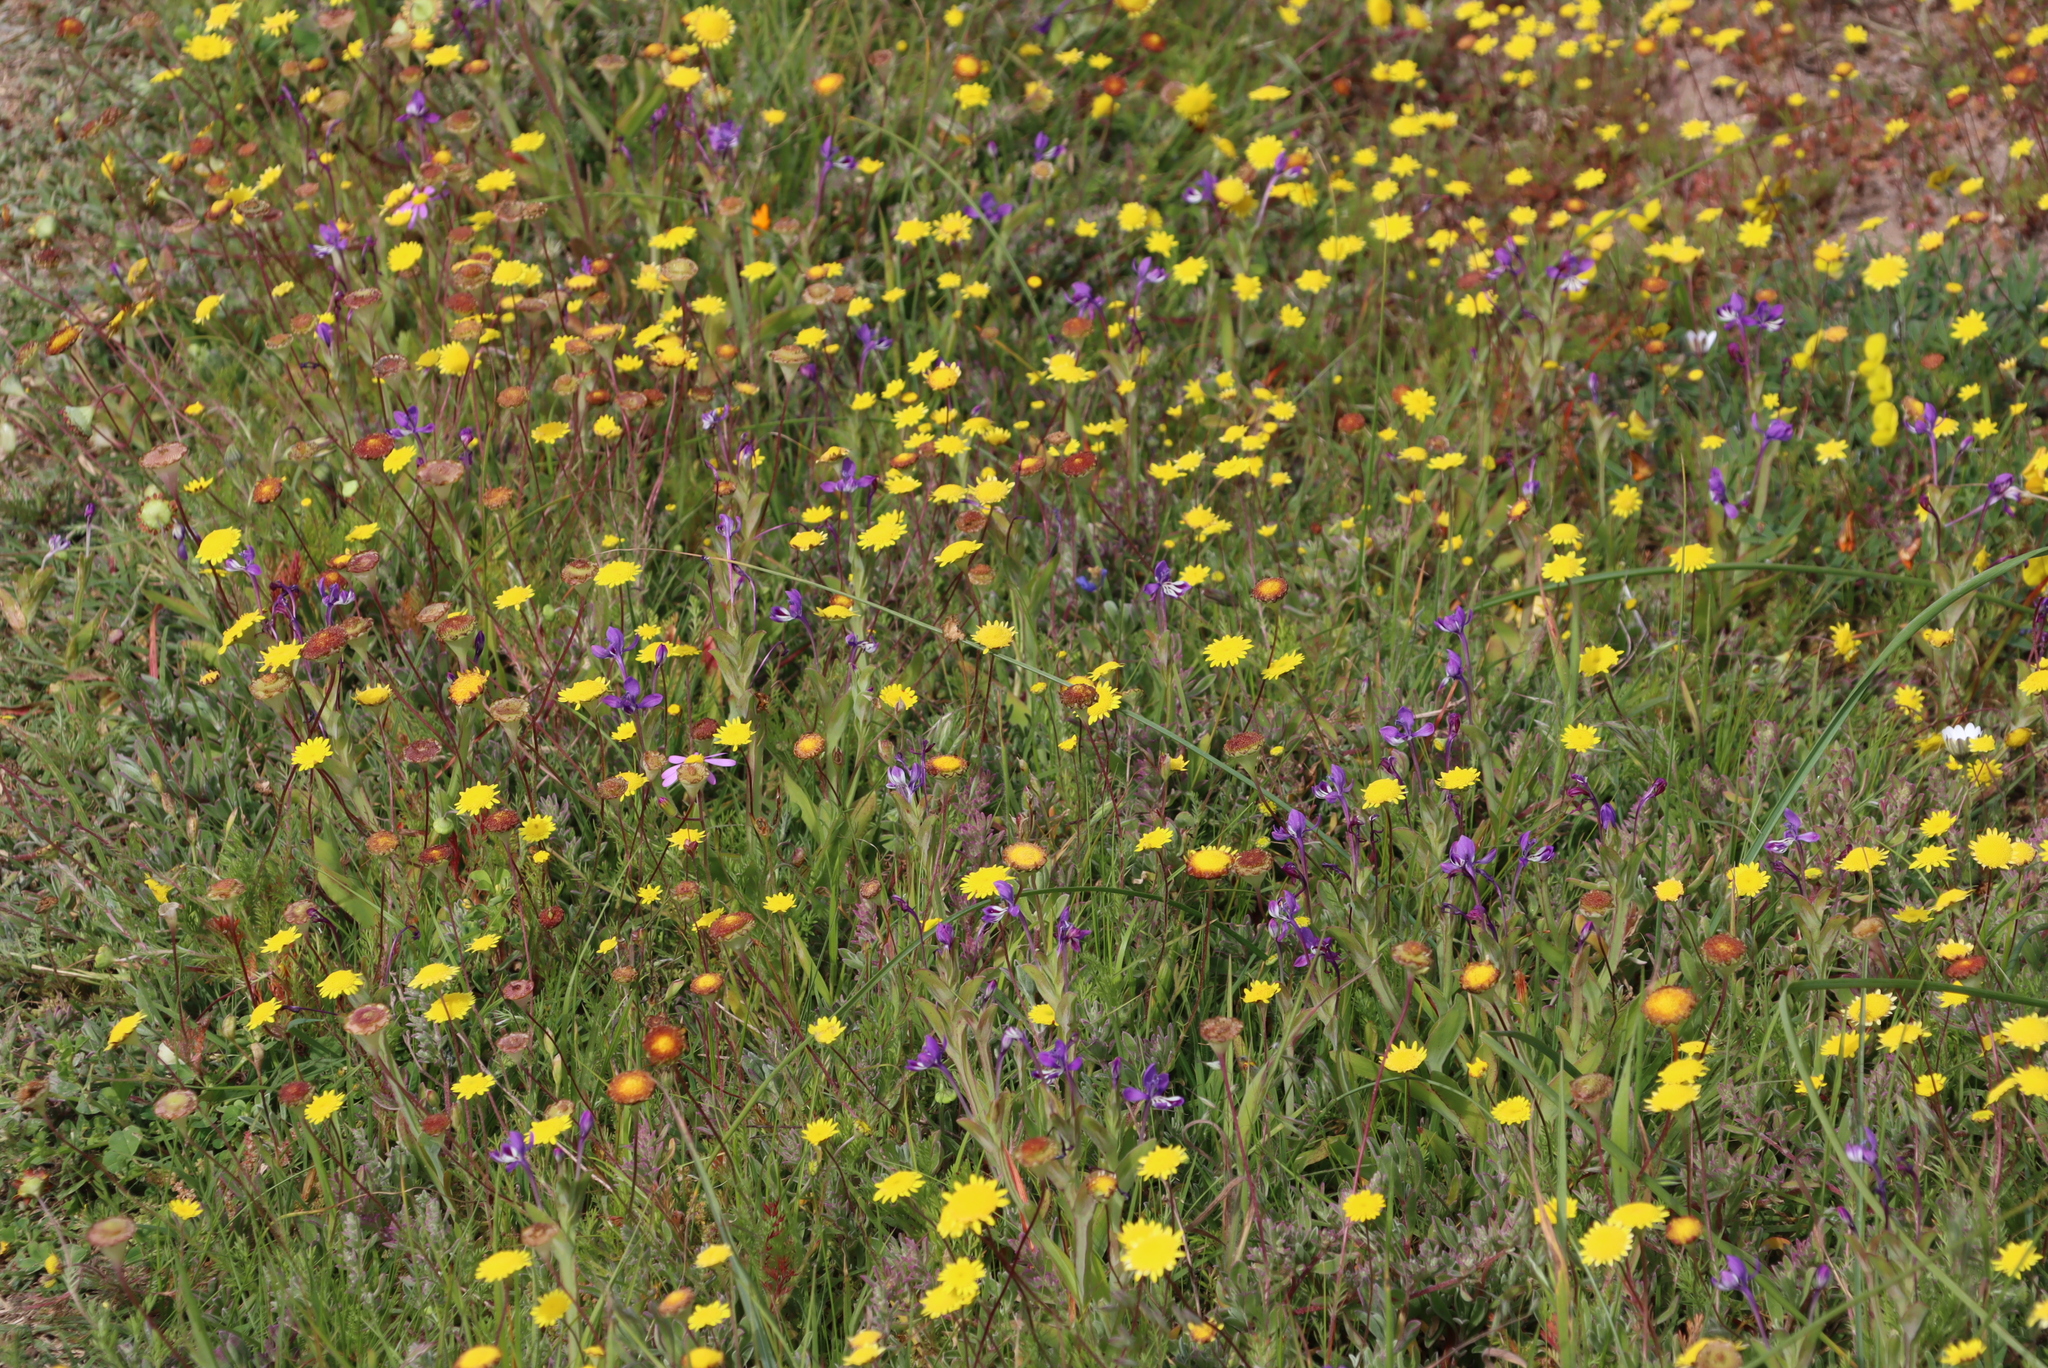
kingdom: Plantae
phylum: Tracheophyta
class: Liliopsida
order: Asparagales
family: Iridaceae
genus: Lapeirousia
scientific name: Lapeirousia jacquinii
